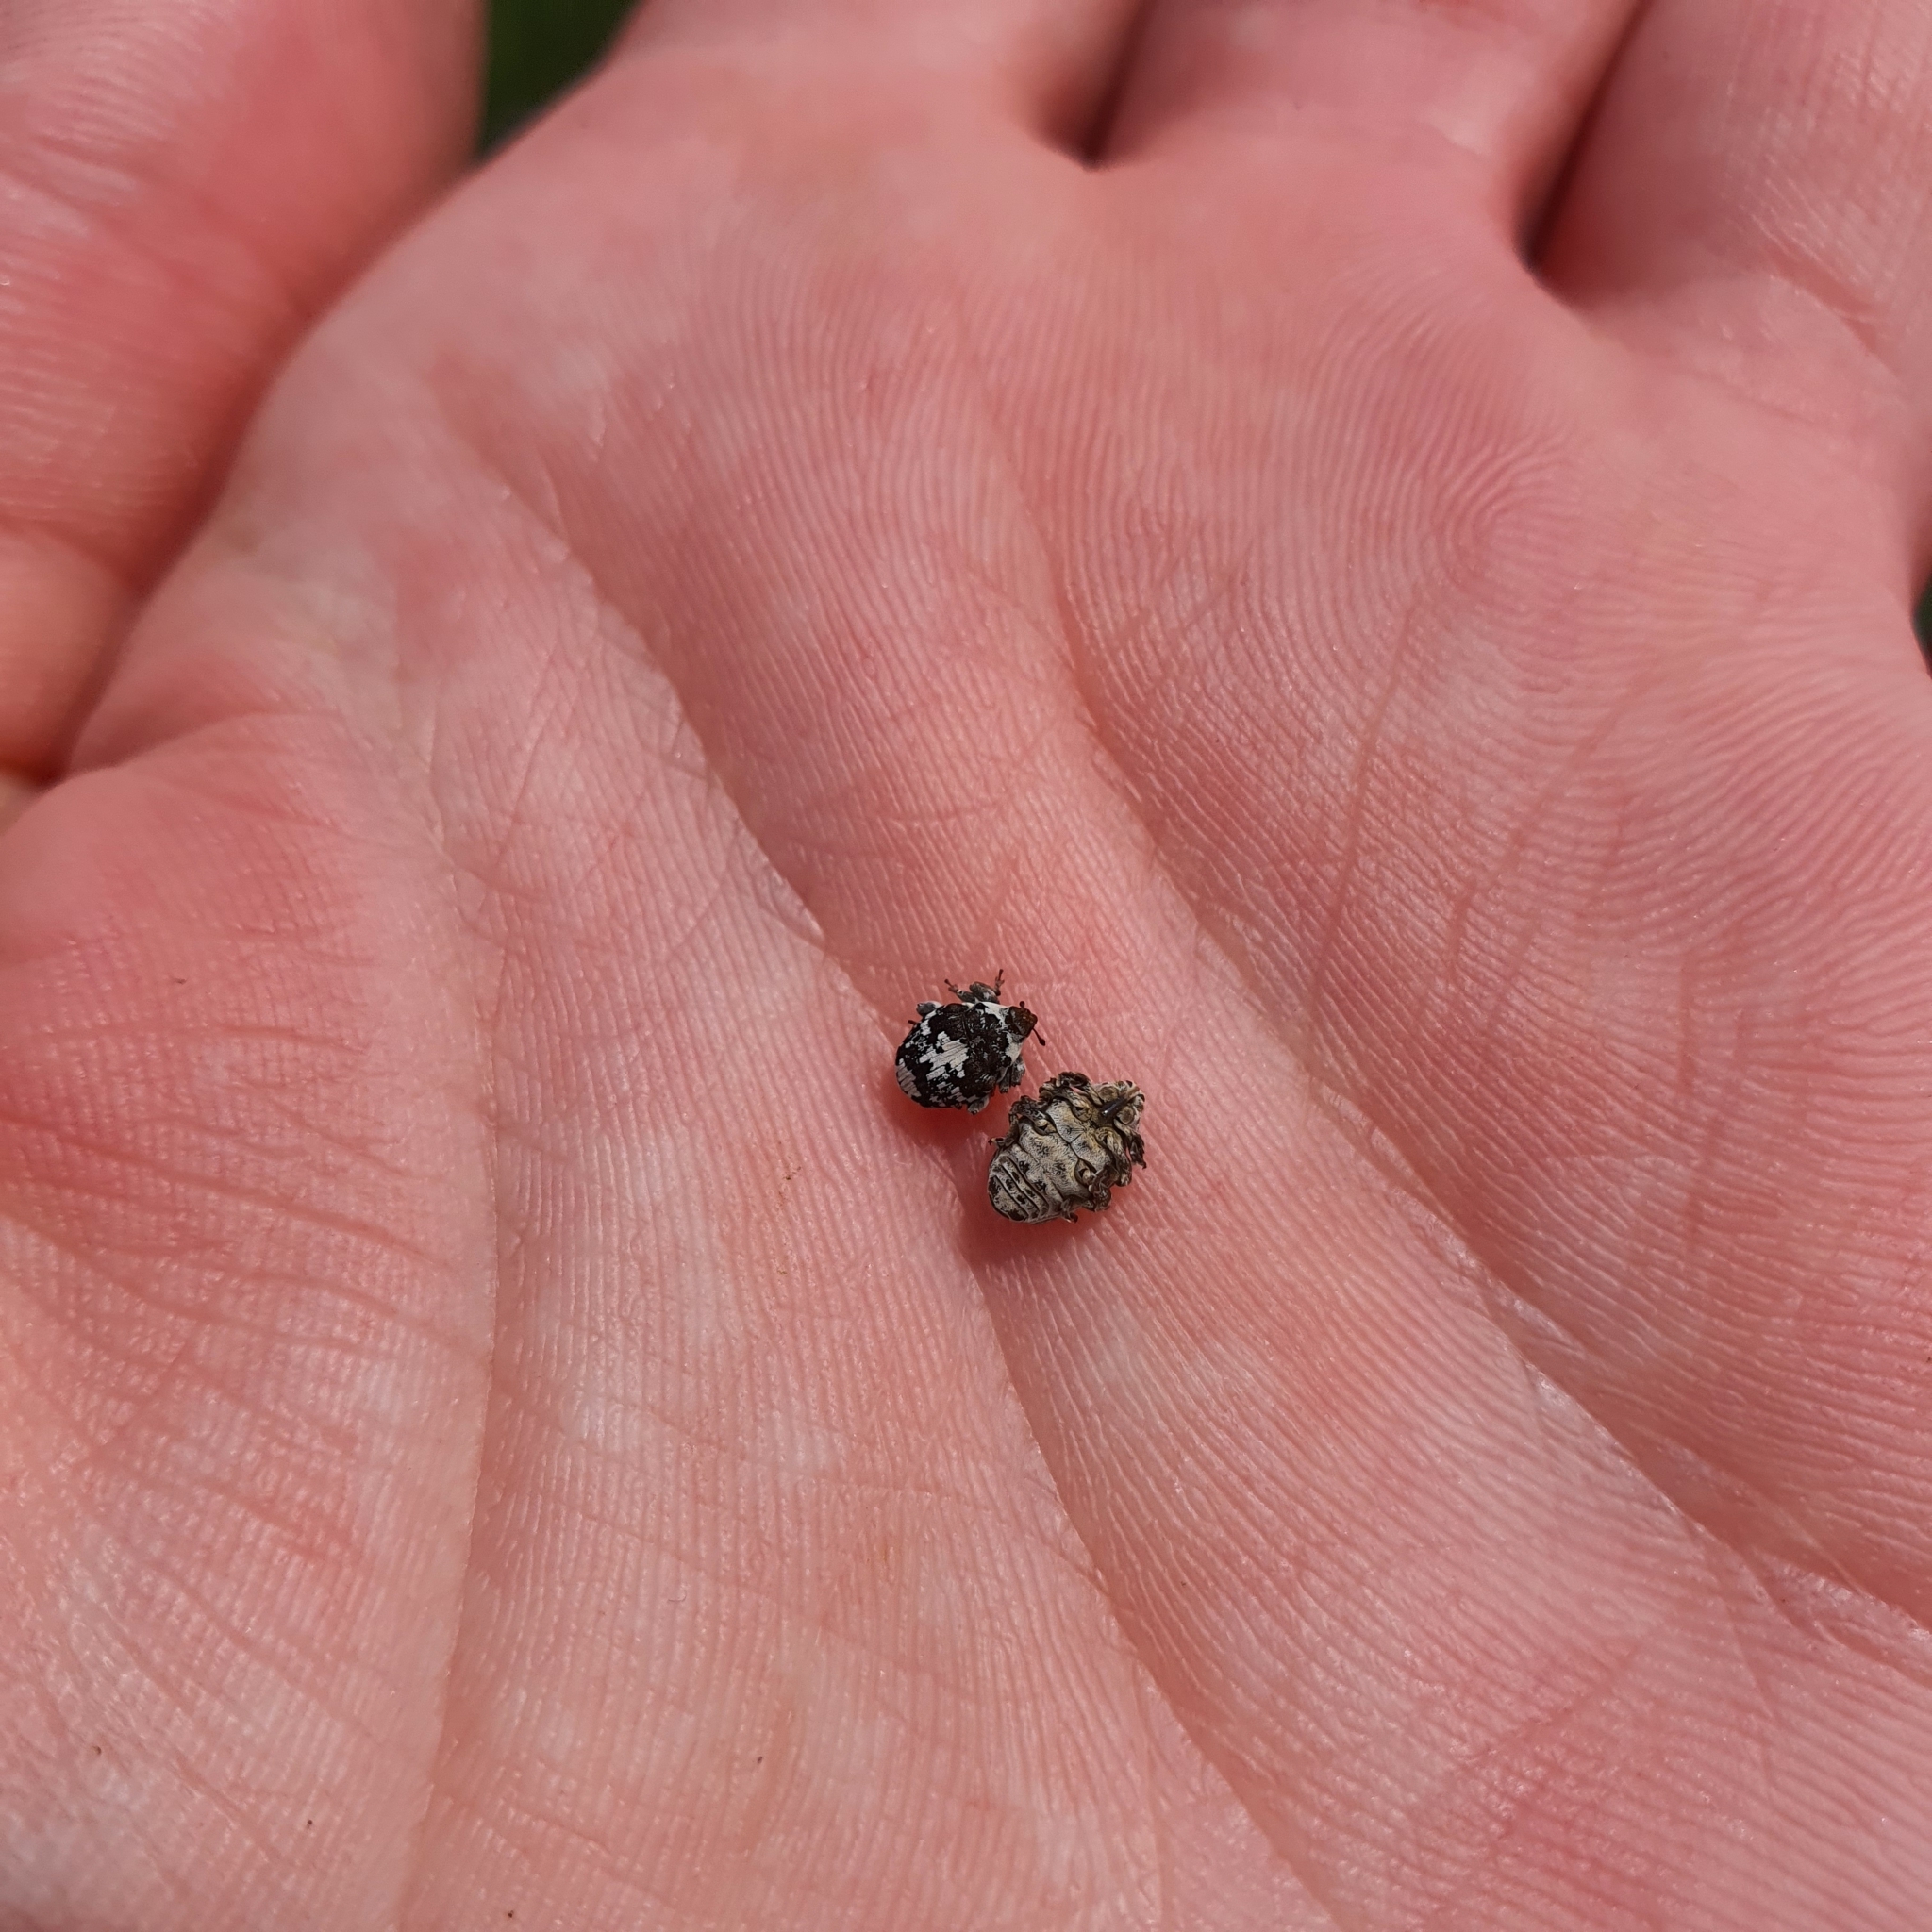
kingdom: Animalia
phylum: Arthropoda
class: Insecta
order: Coleoptera
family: Curculionidae
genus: Mogulones
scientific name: Mogulones geographicus
